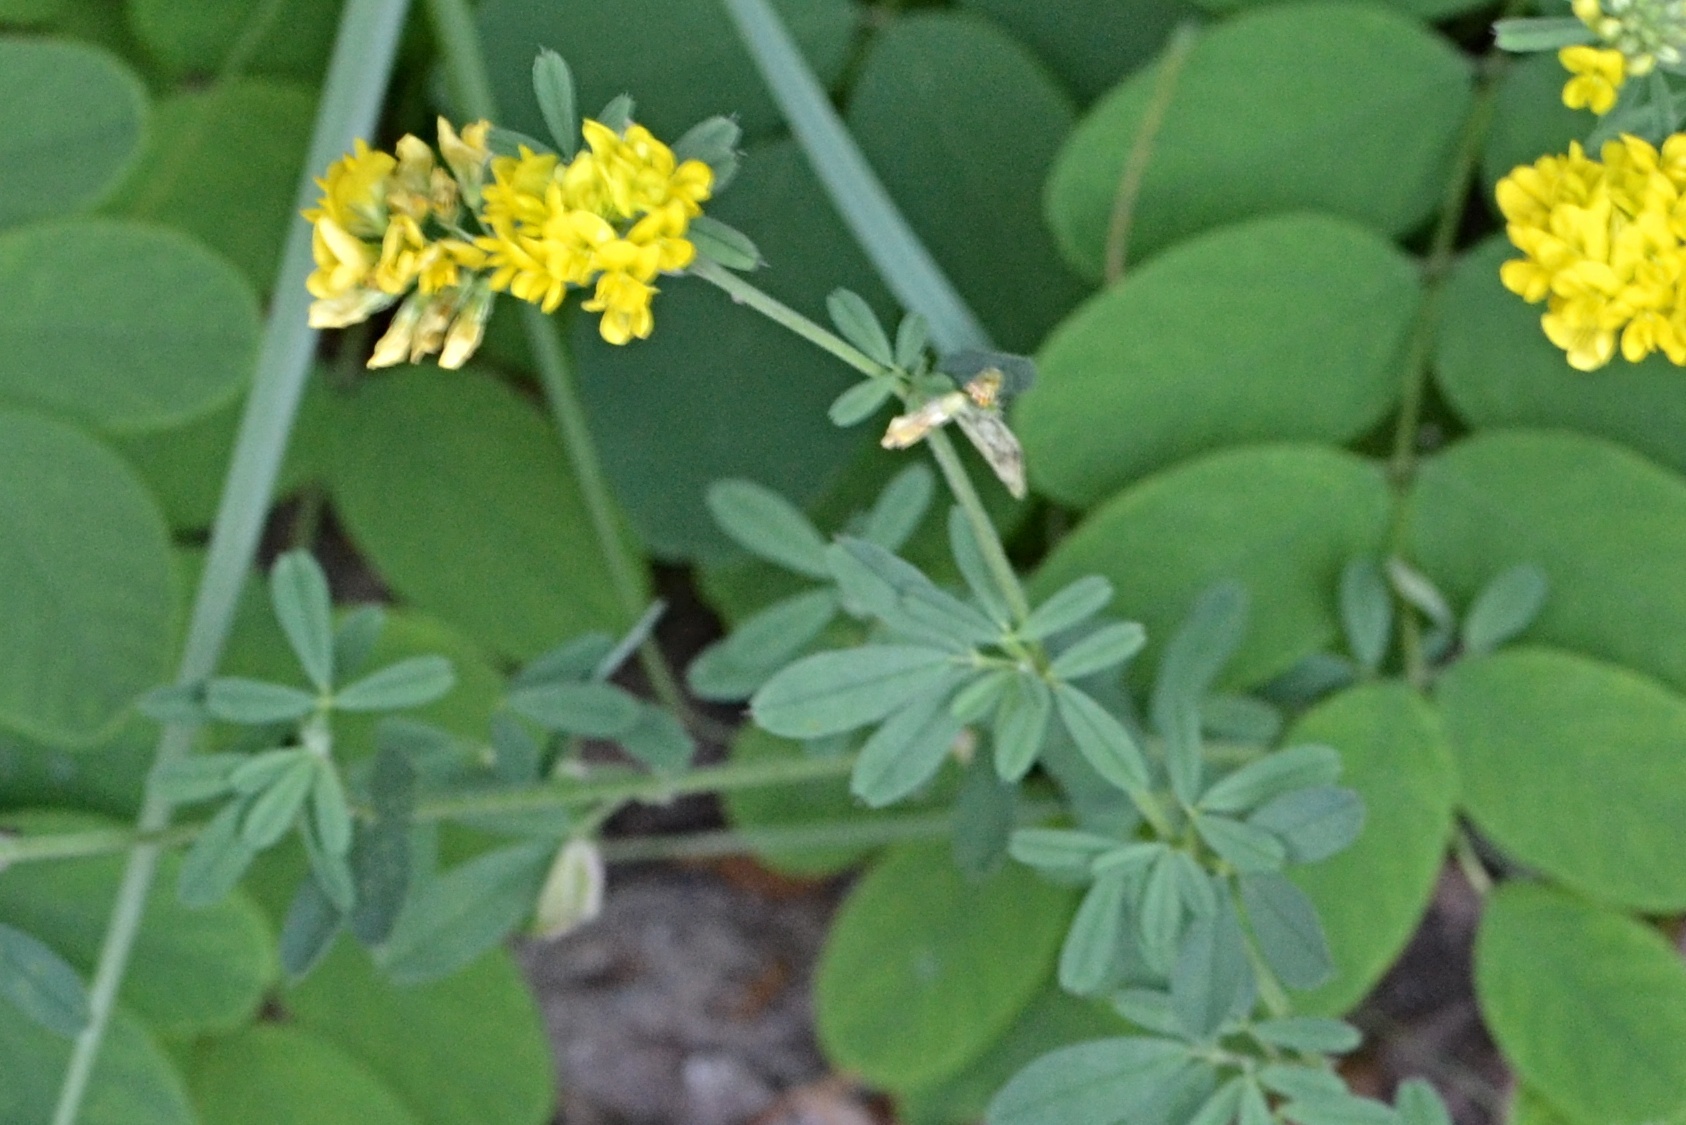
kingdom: Plantae
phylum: Tracheophyta
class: Magnoliopsida
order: Fabales
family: Fabaceae
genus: Medicago
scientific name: Medicago falcata
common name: Sickle medick
